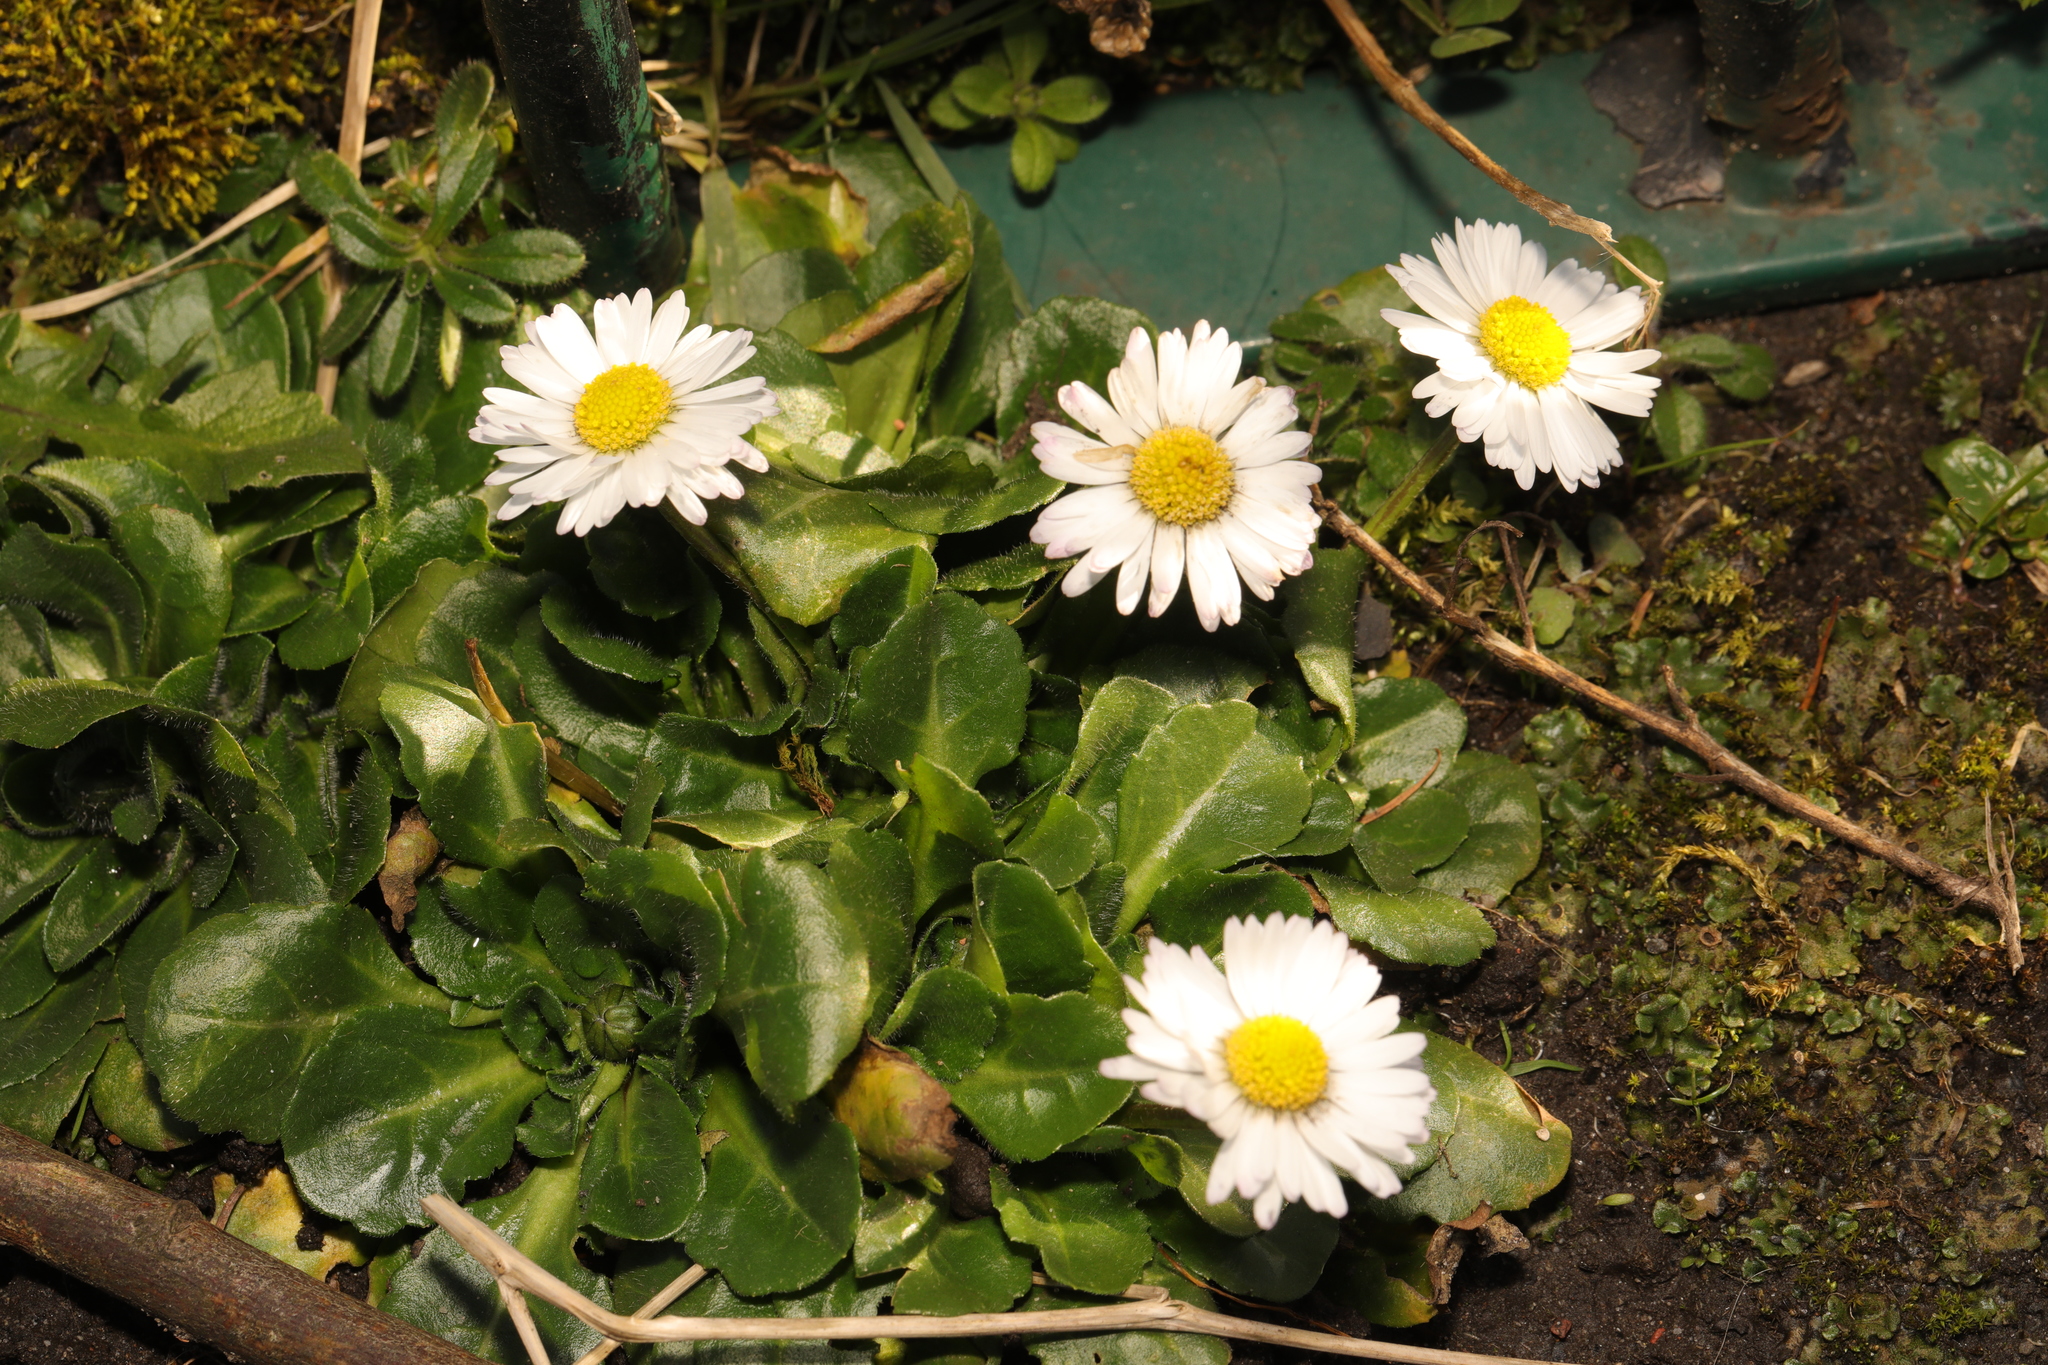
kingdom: Plantae
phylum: Tracheophyta
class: Magnoliopsida
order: Asterales
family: Asteraceae
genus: Bellis
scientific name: Bellis perennis
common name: Lawndaisy
